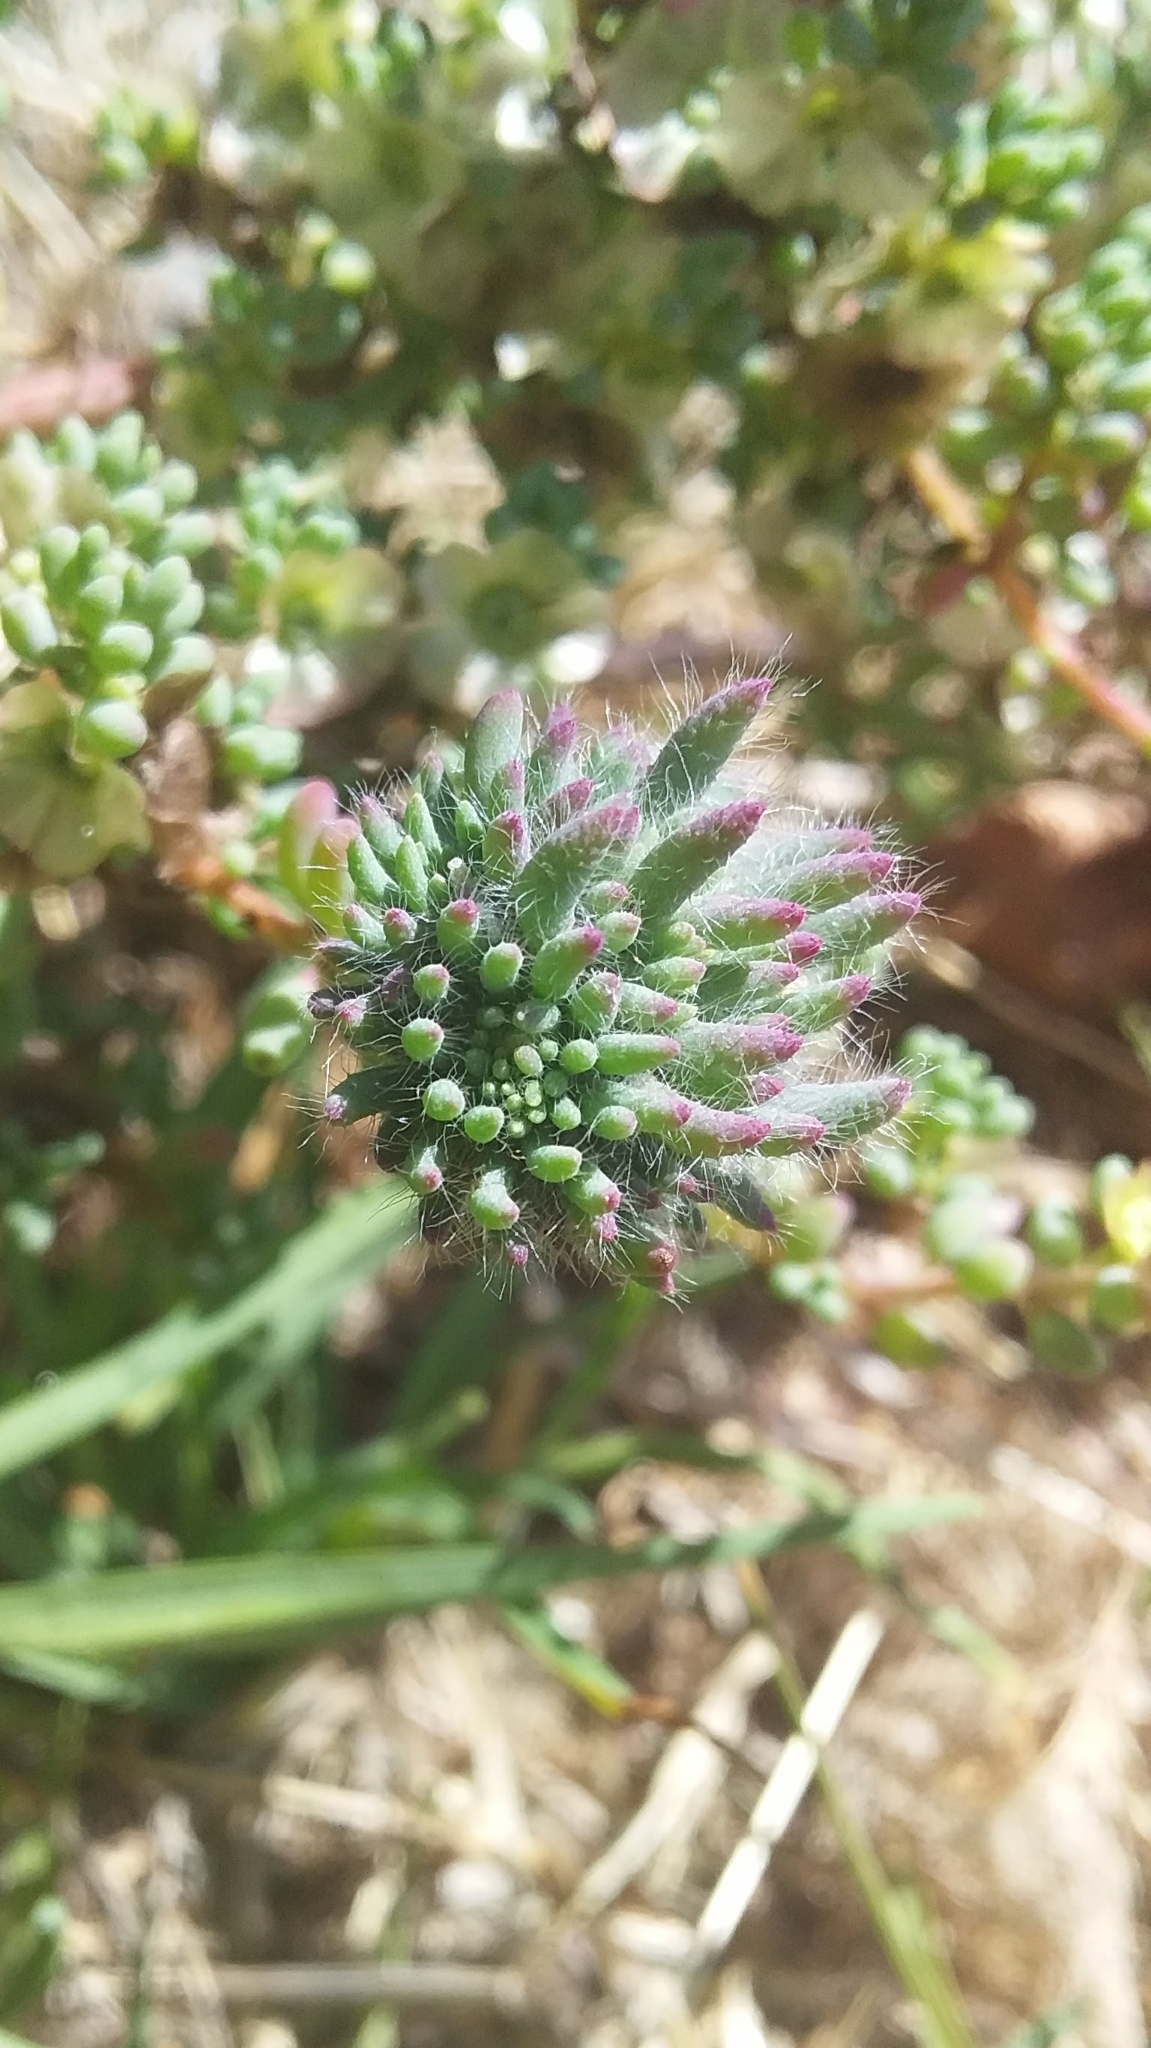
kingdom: Animalia
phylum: Arthropoda
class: Insecta
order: Diptera
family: Cecidomyiidae
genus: Dactylasioptera
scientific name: Dactylasioptera milnae
